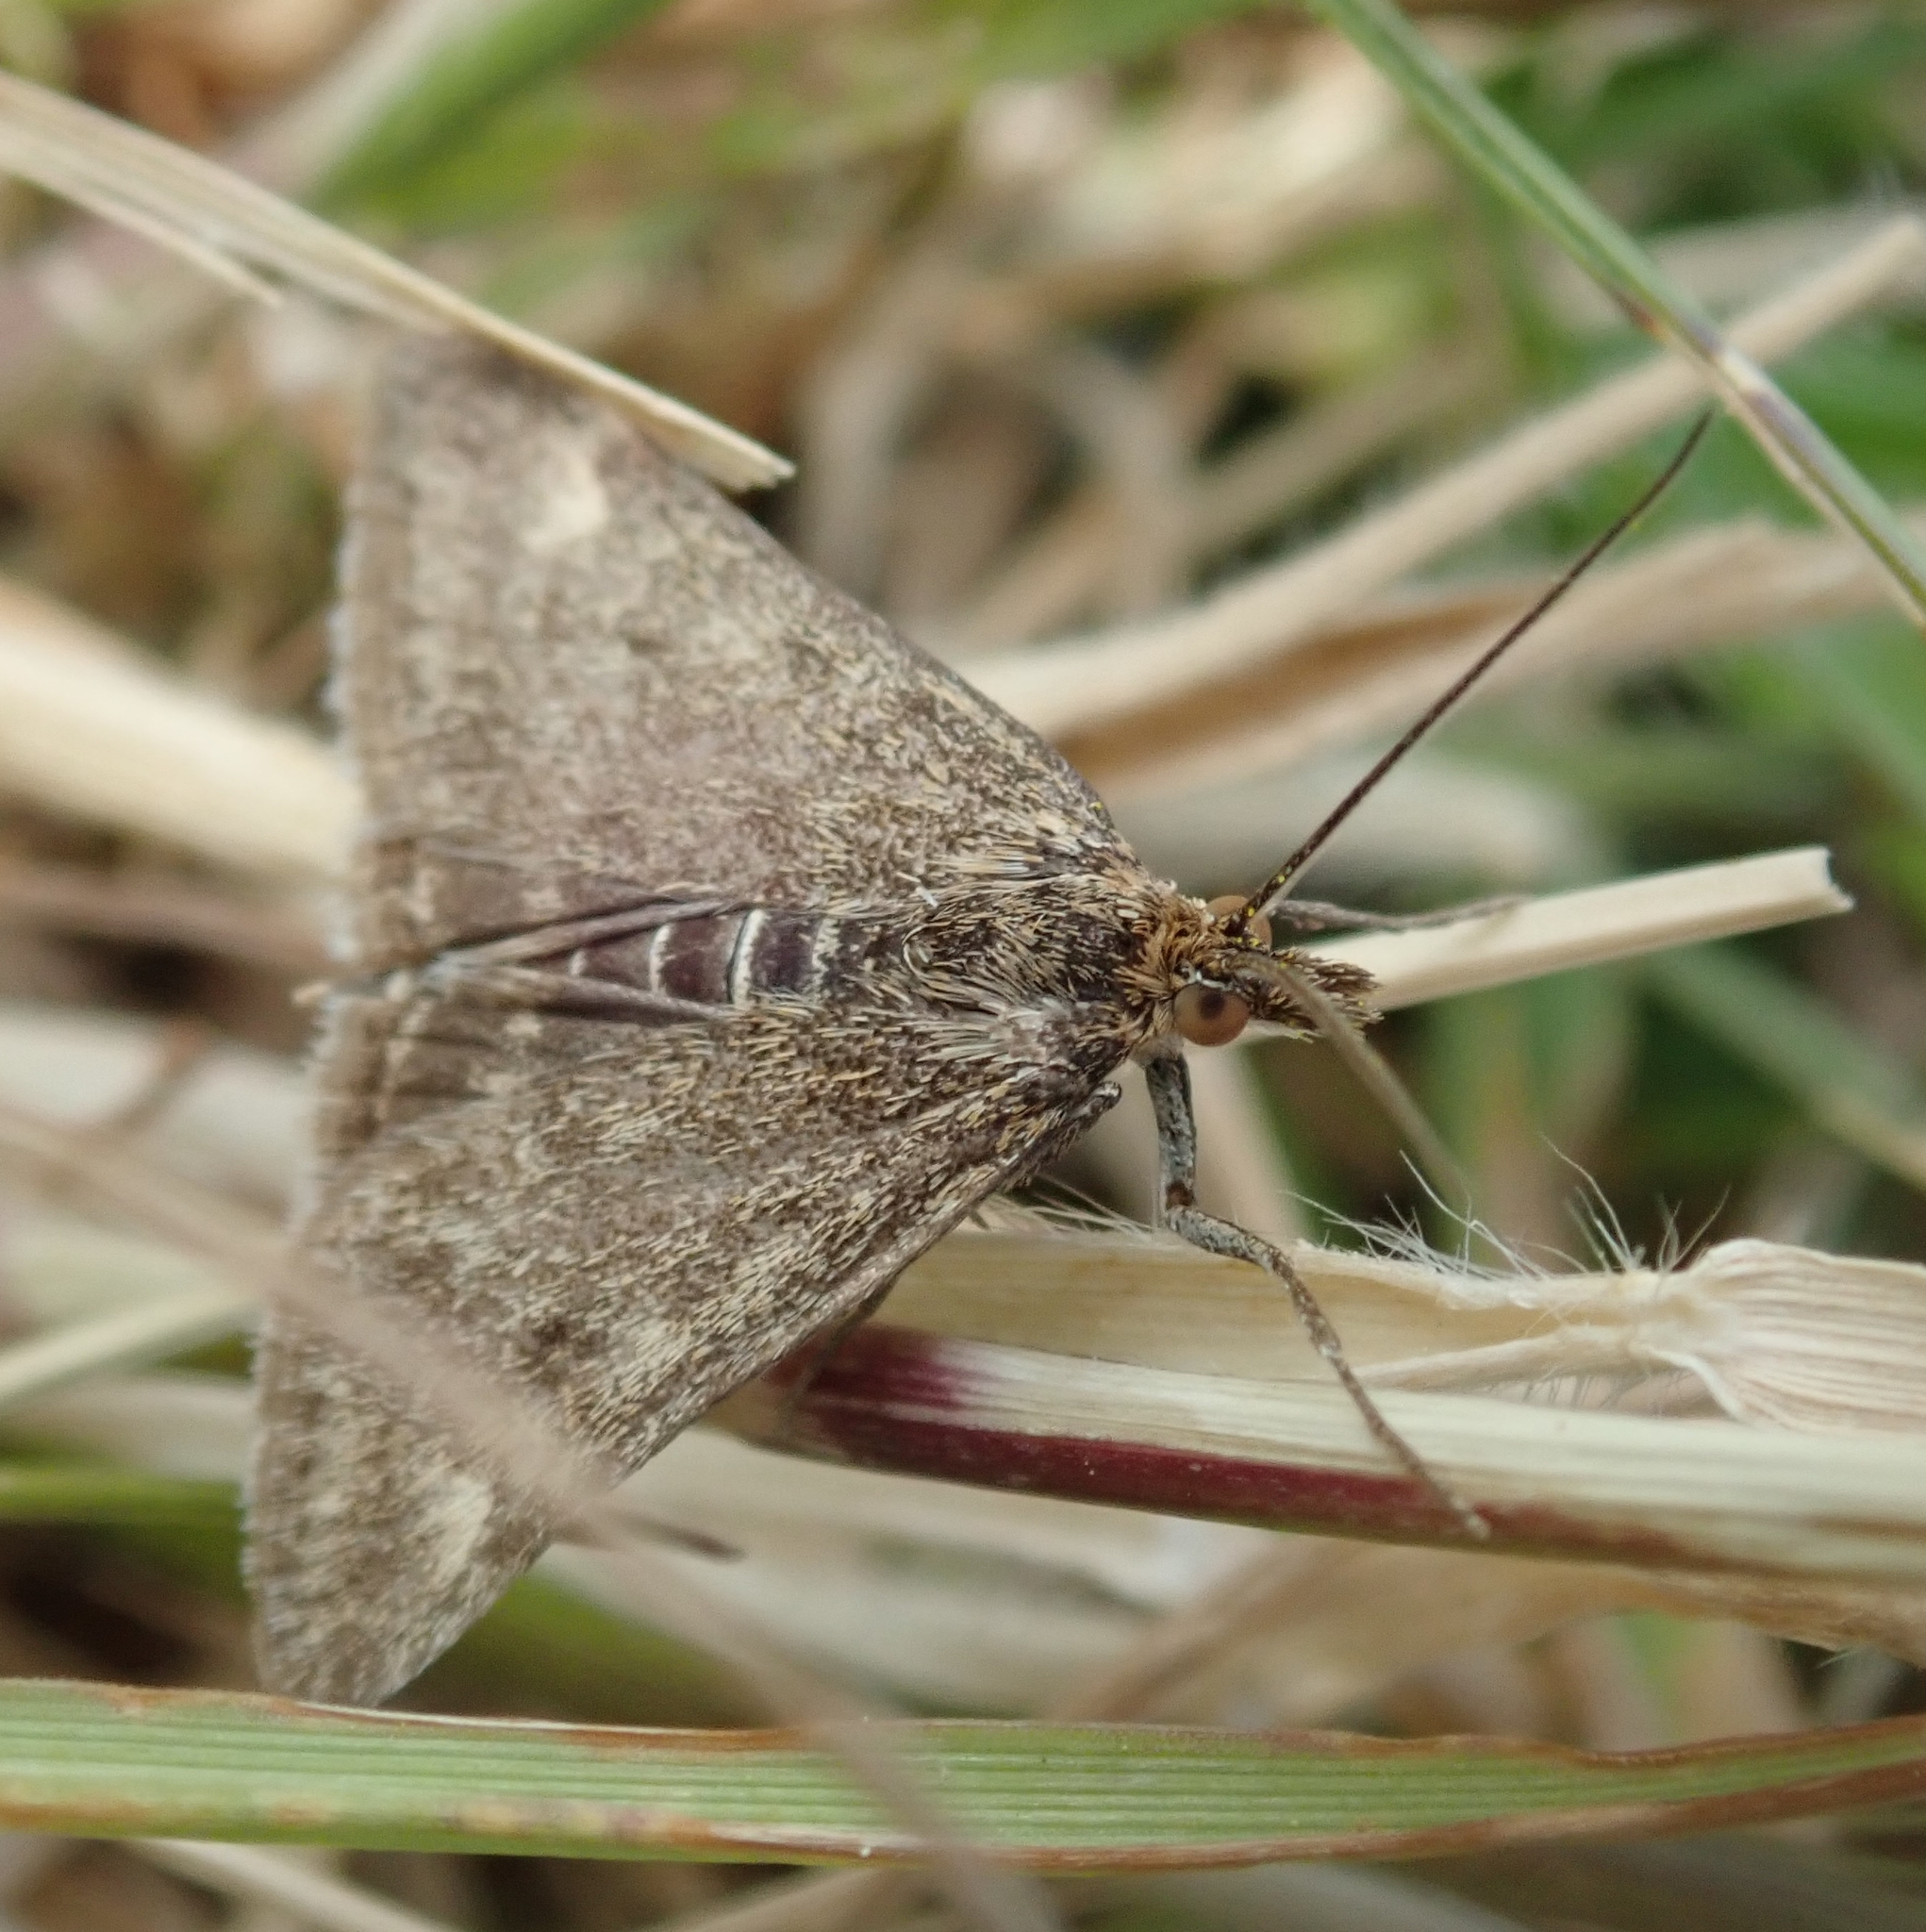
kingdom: Animalia
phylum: Arthropoda
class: Insecta
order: Lepidoptera
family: Crambidae
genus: Pyrausta
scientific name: Pyrausta despicata
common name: Straw-barred pearl
